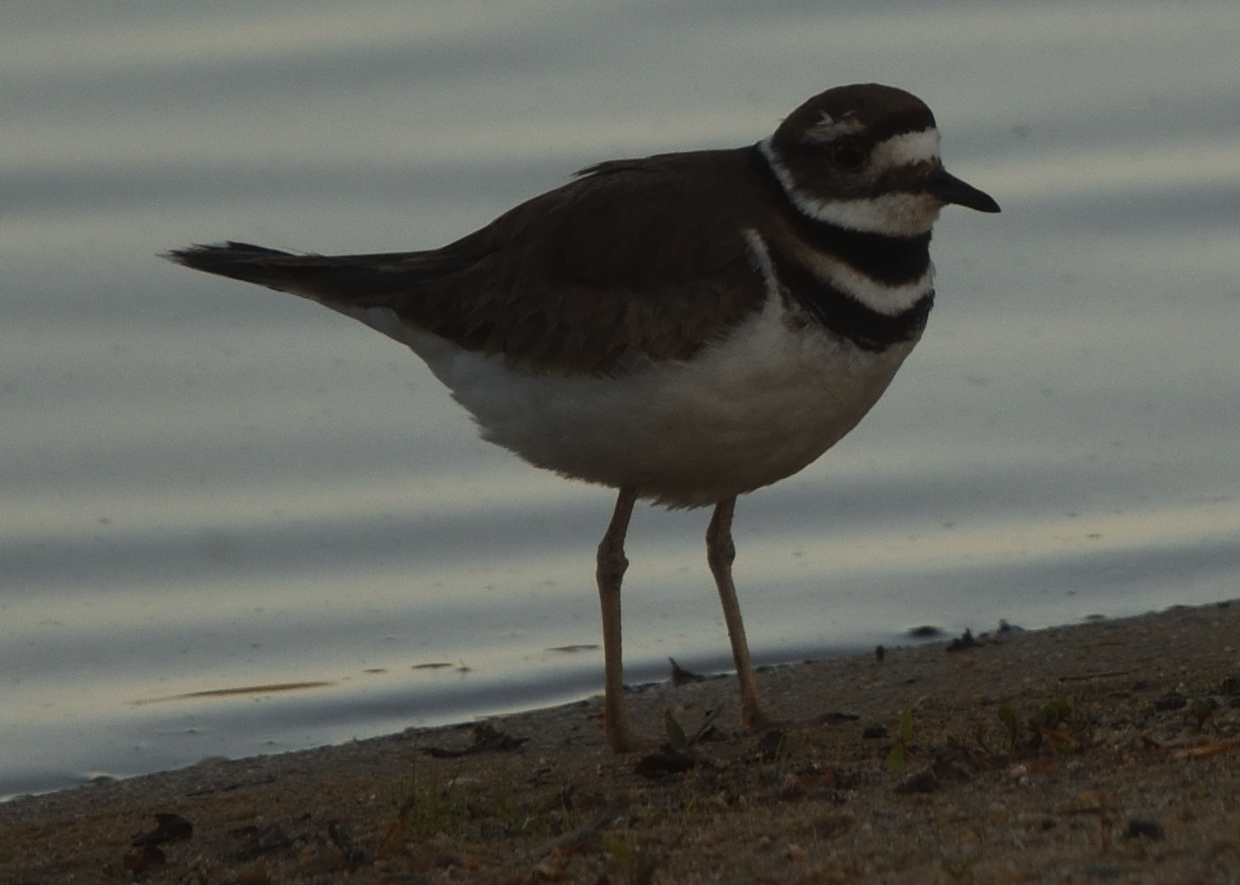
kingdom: Animalia
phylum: Chordata
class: Aves
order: Charadriiformes
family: Charadriidae
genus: Charadrius
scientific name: Charadrius vociferus
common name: Killdeer
